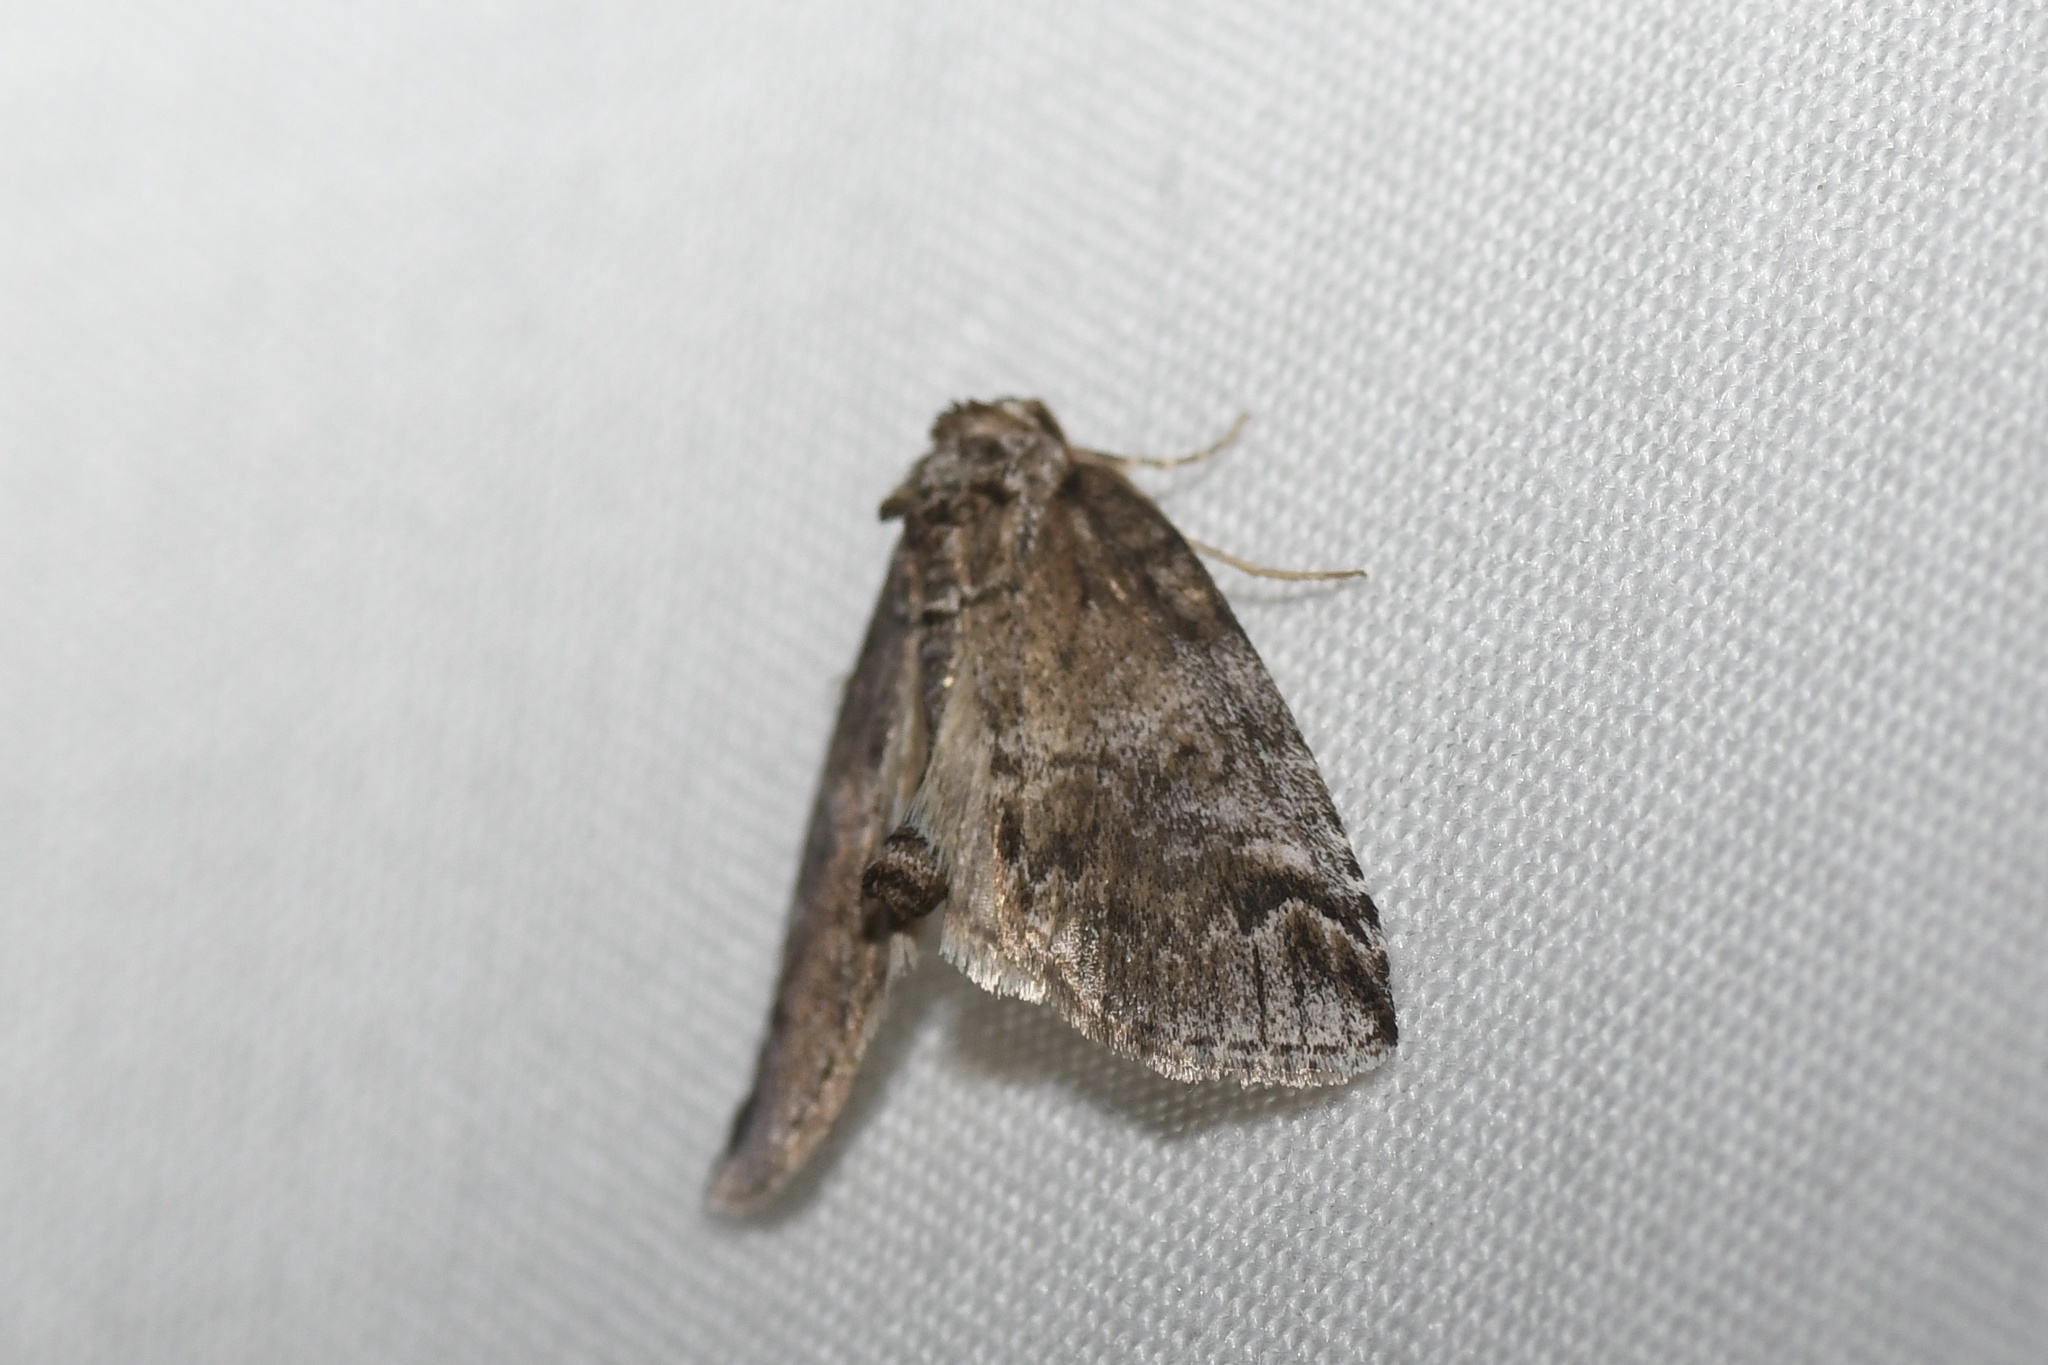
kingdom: Animalia
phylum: Arthropoda
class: Insecta
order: Lepidoptera
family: Nolidae
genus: Baileya
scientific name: Baileya dormitans
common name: Sleeping baileya moth
